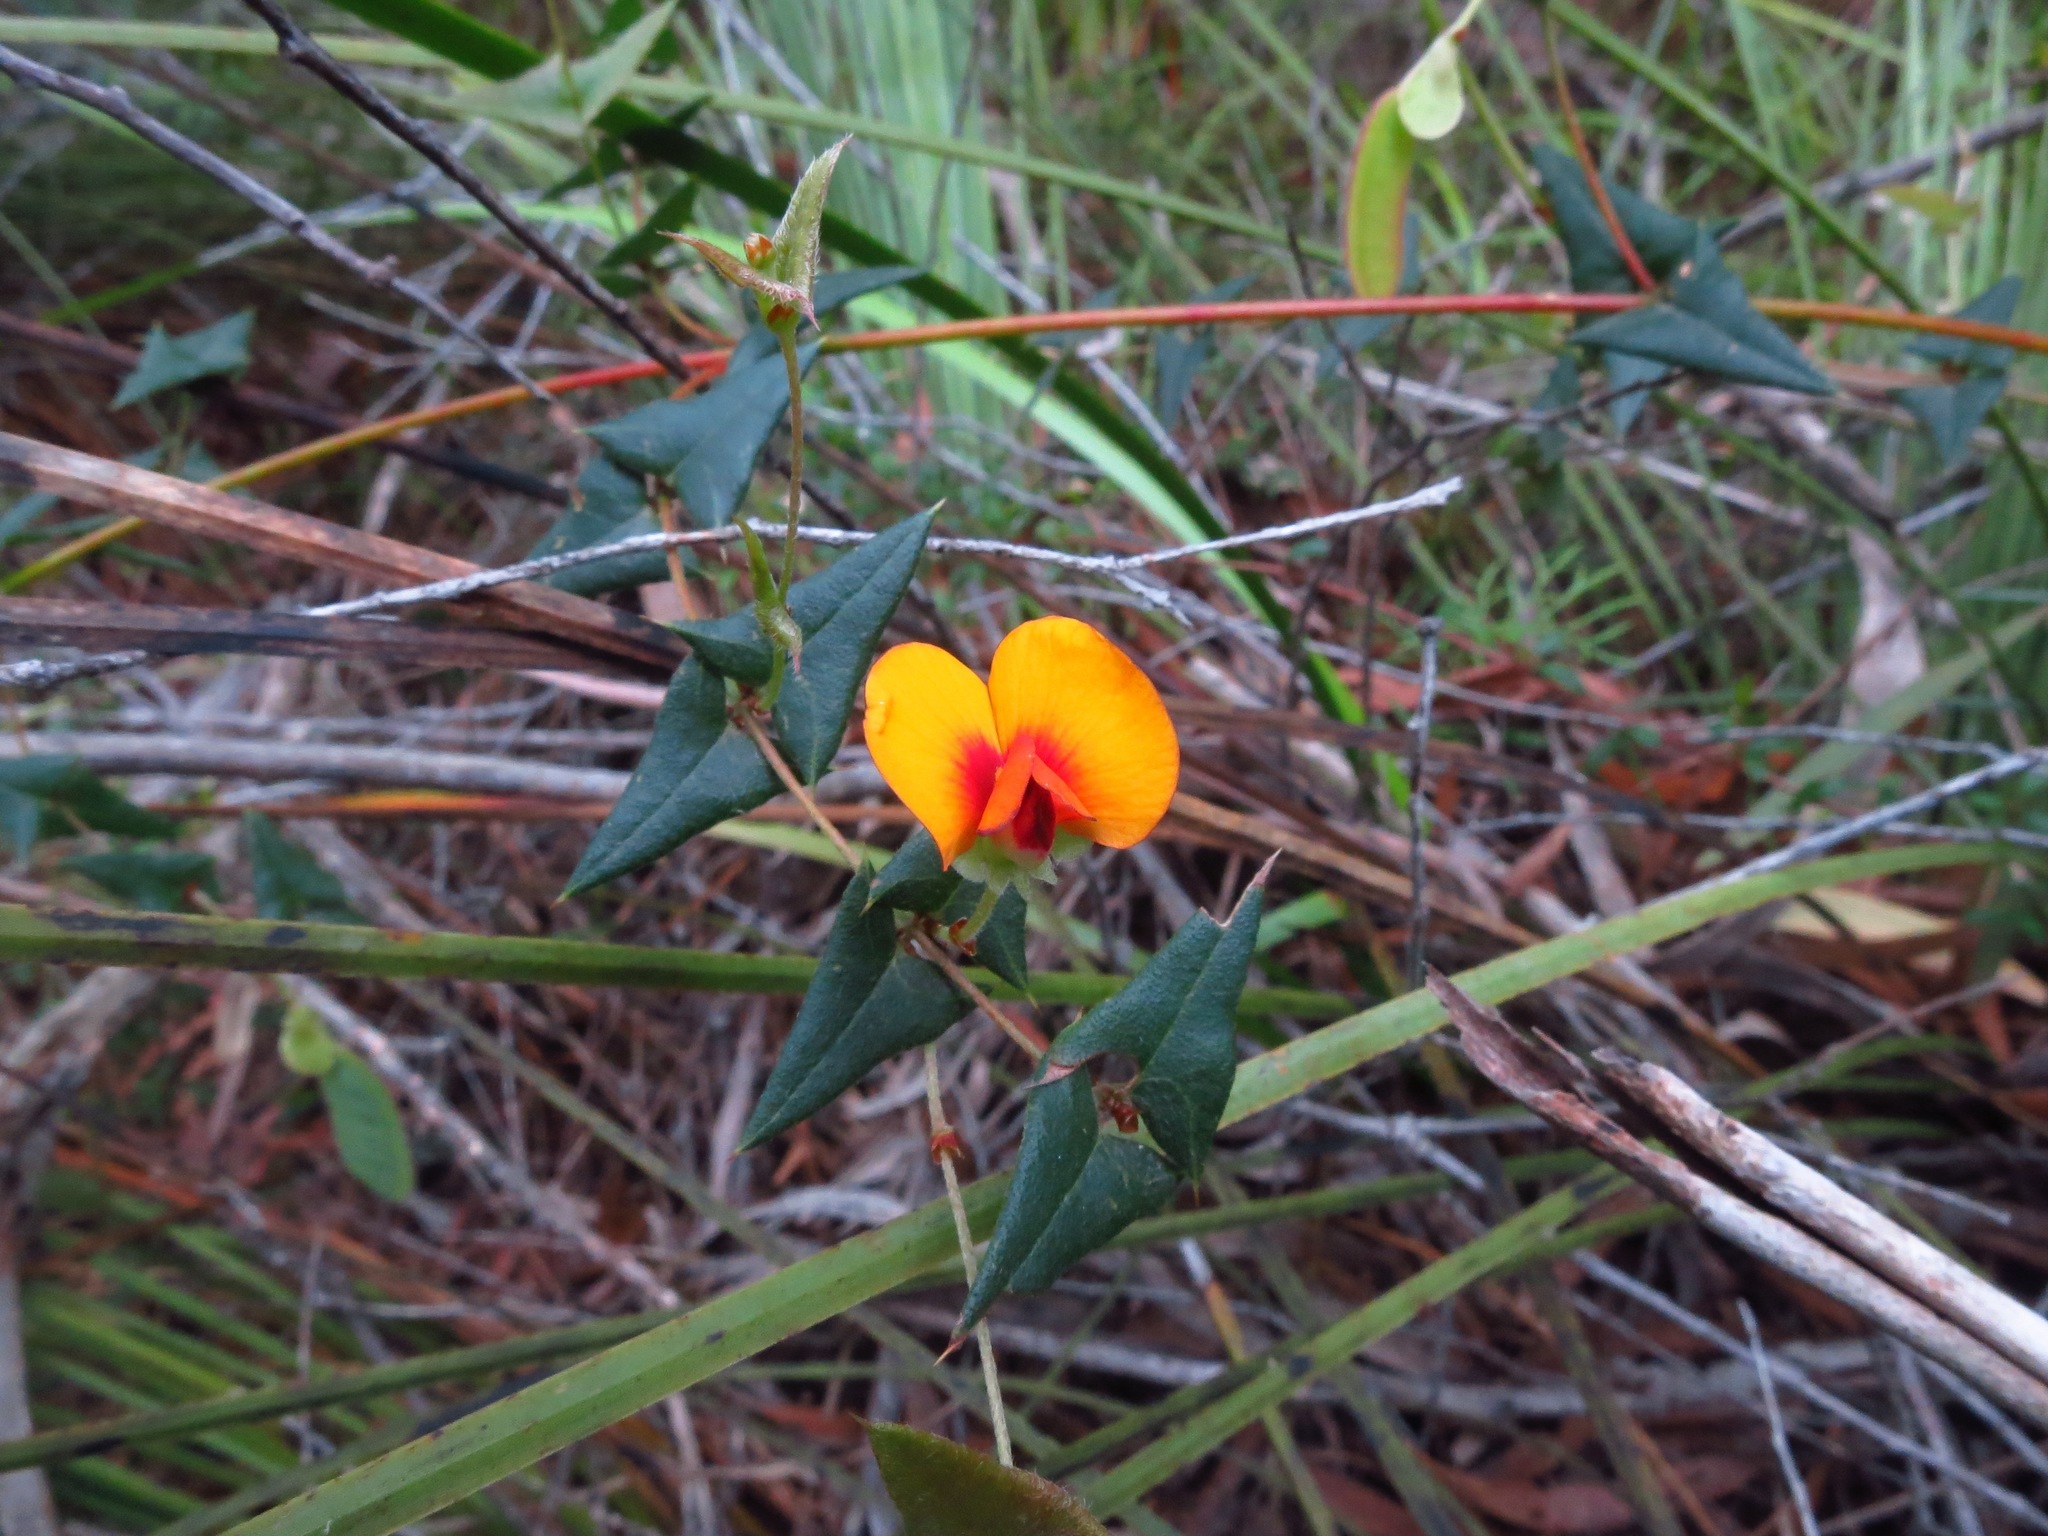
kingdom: Plantae
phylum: Tracheophyta
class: Magnoliopsida
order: Fabales
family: Fabaceae
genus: Platylobium
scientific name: Platylobium triangulare
